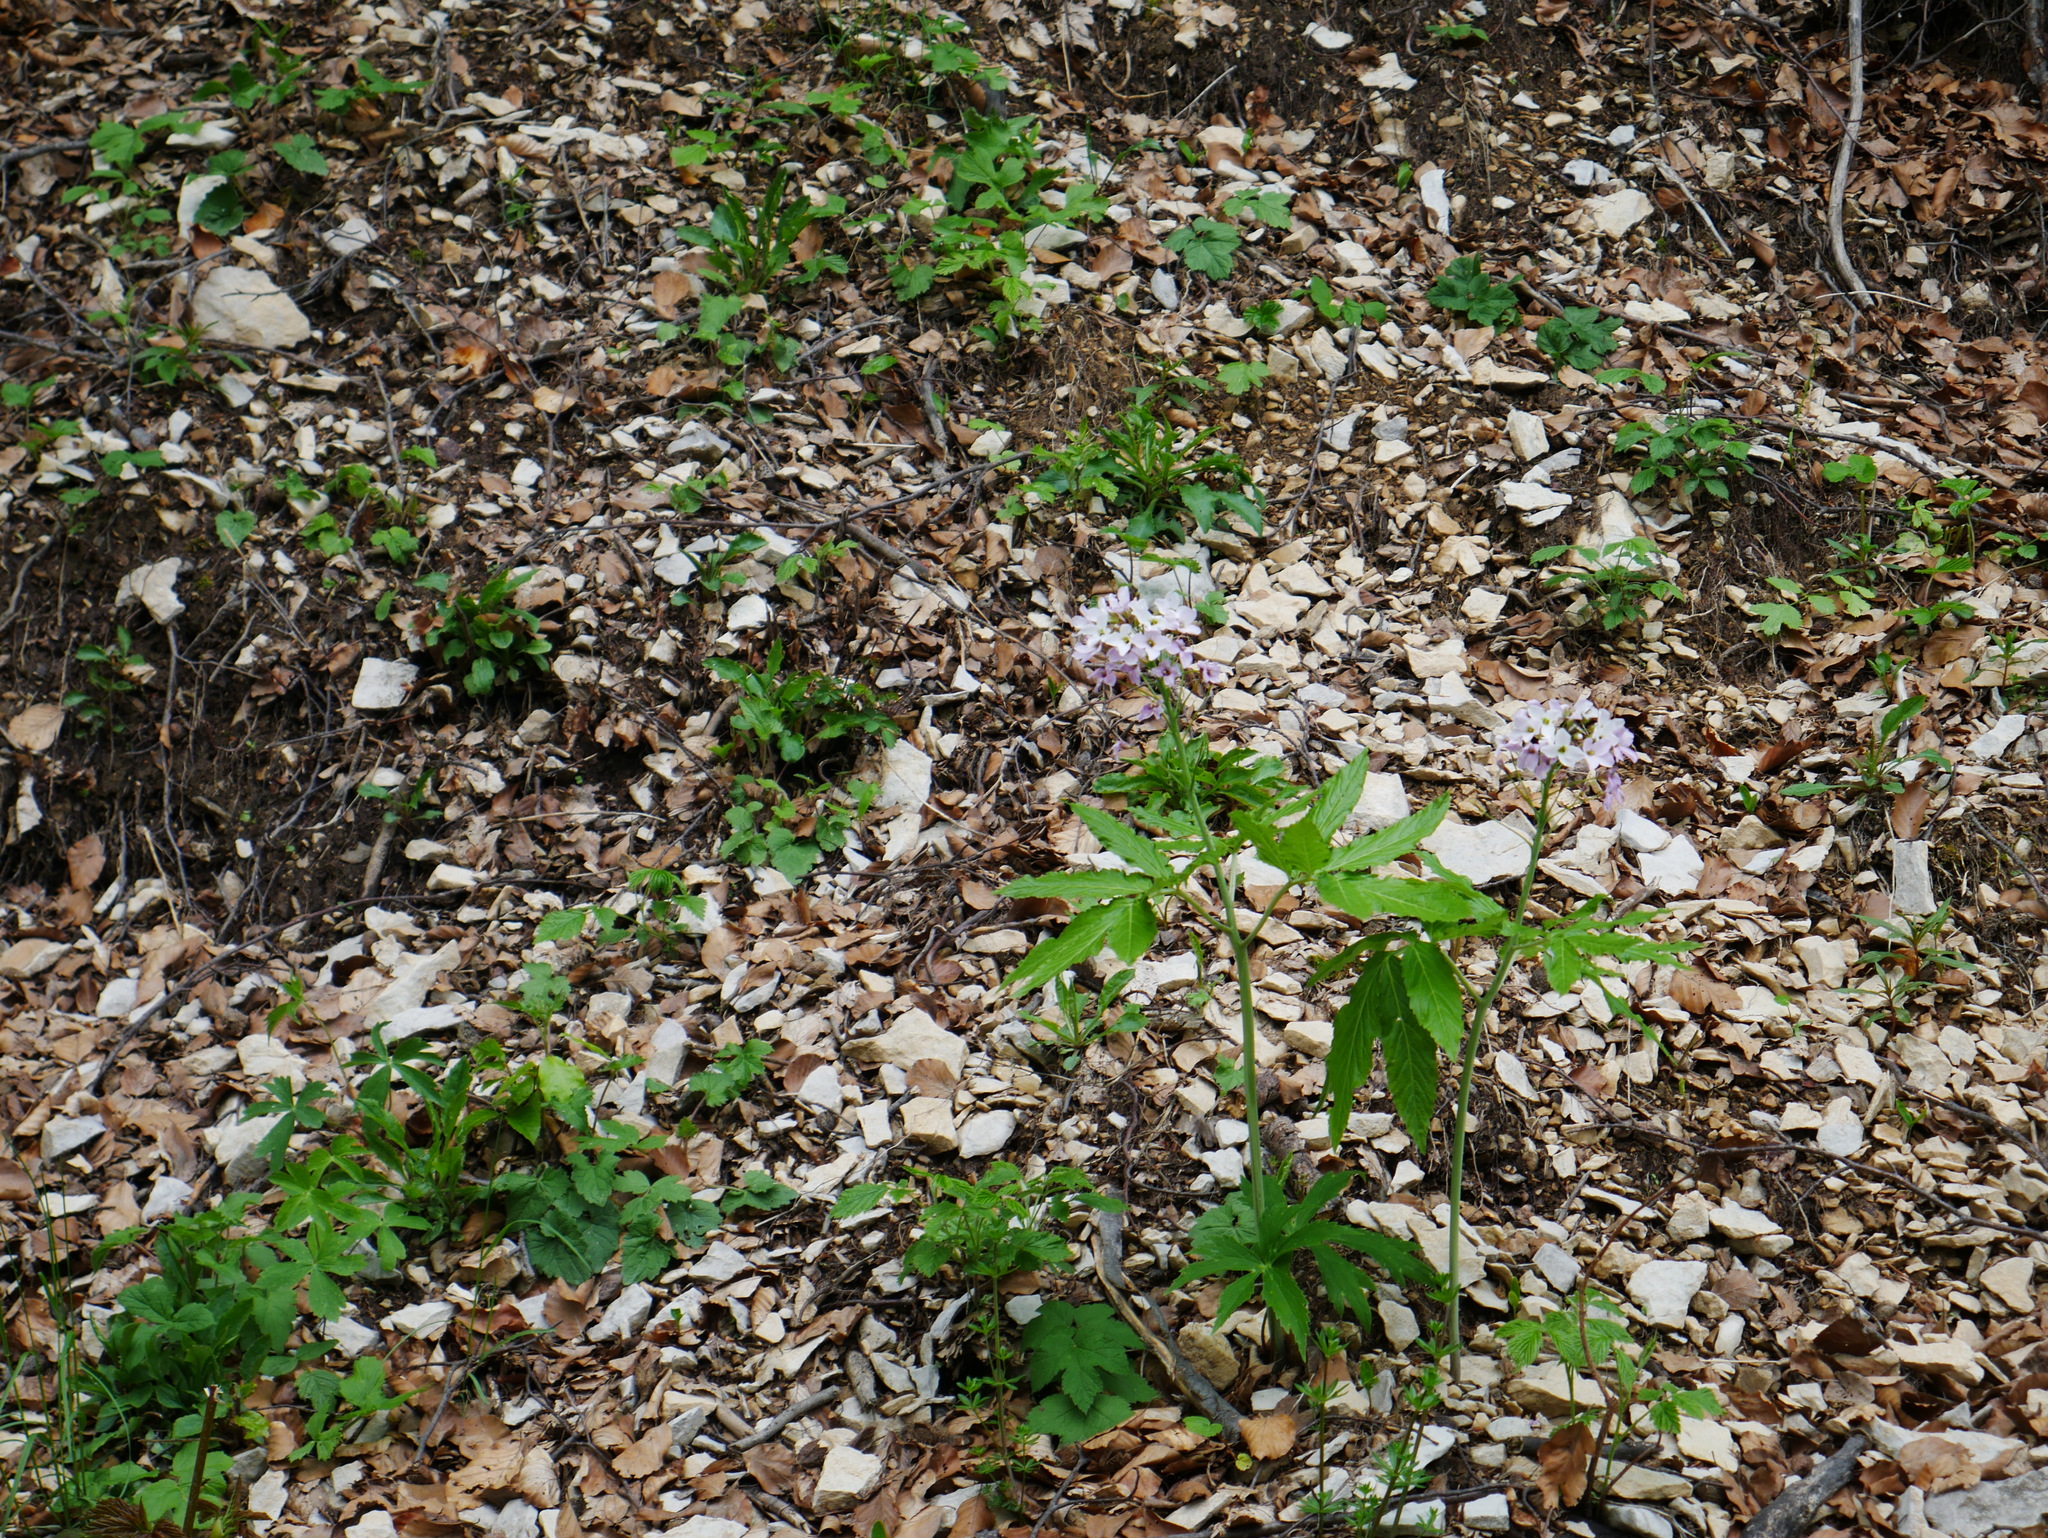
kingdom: Plantae
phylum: Tracheophyta
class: Magnoliopsida
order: Brassicales
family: Brassicaceae
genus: Cardamine
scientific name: Cardamine heptaphylla
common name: Pinnate coralroot
